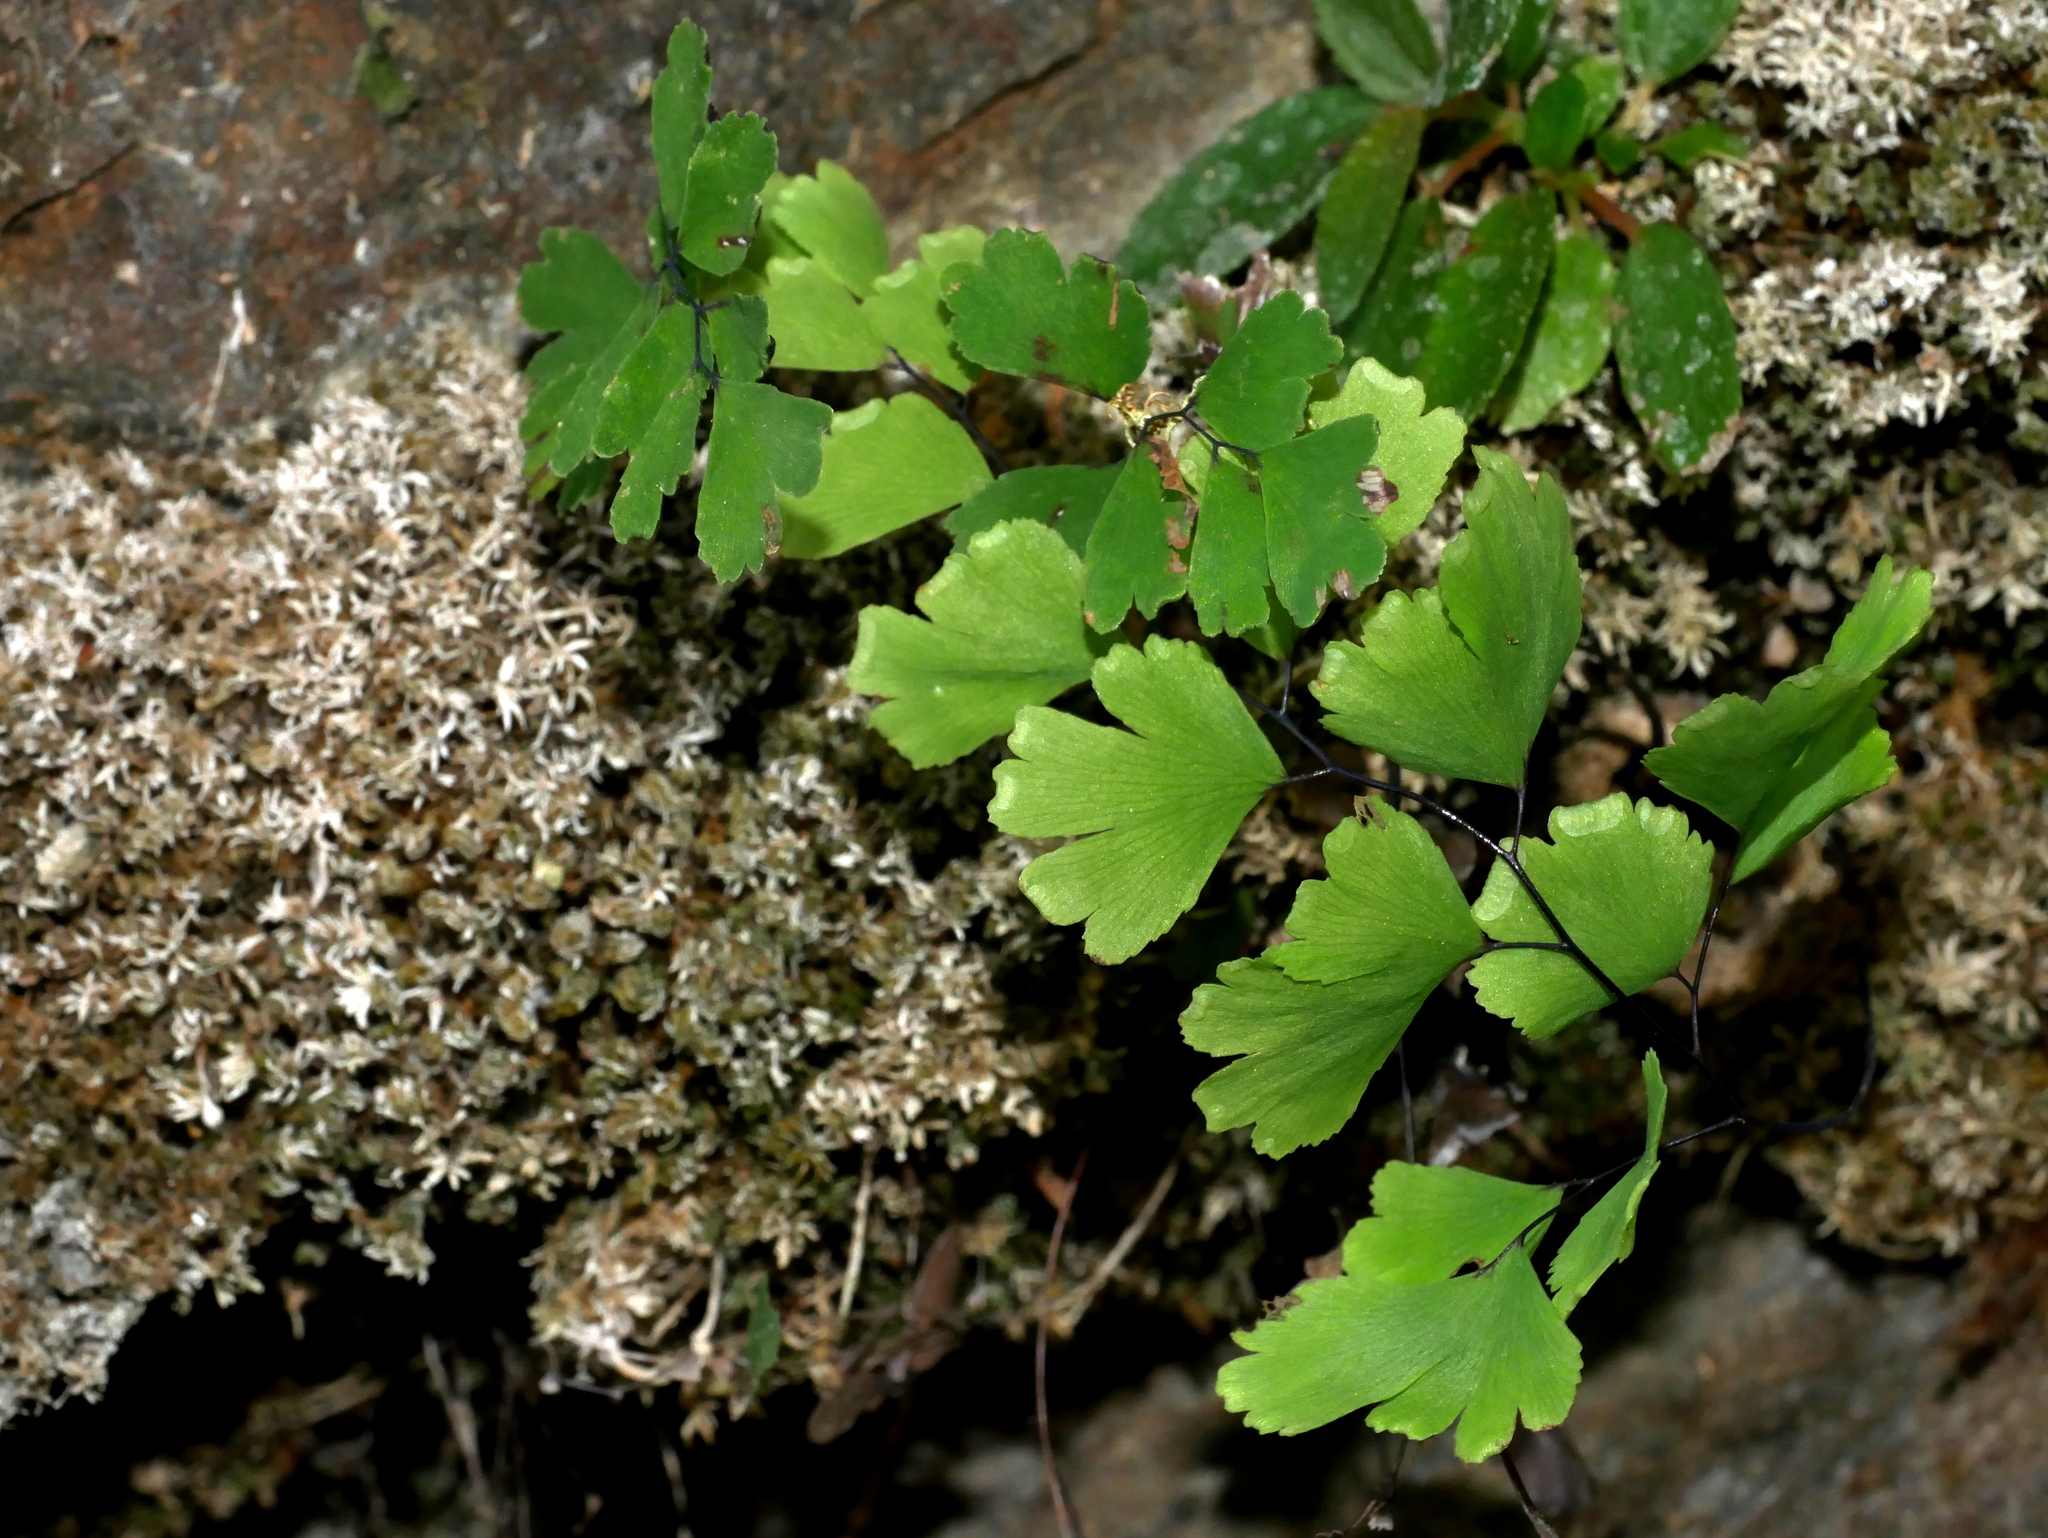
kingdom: Plantae
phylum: Tracheophyta
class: Polypodiopsida
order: Polypodiales
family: Pteridaceae
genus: Adiantum
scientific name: Adiantum capillus-veneris
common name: Maidenhair fern
